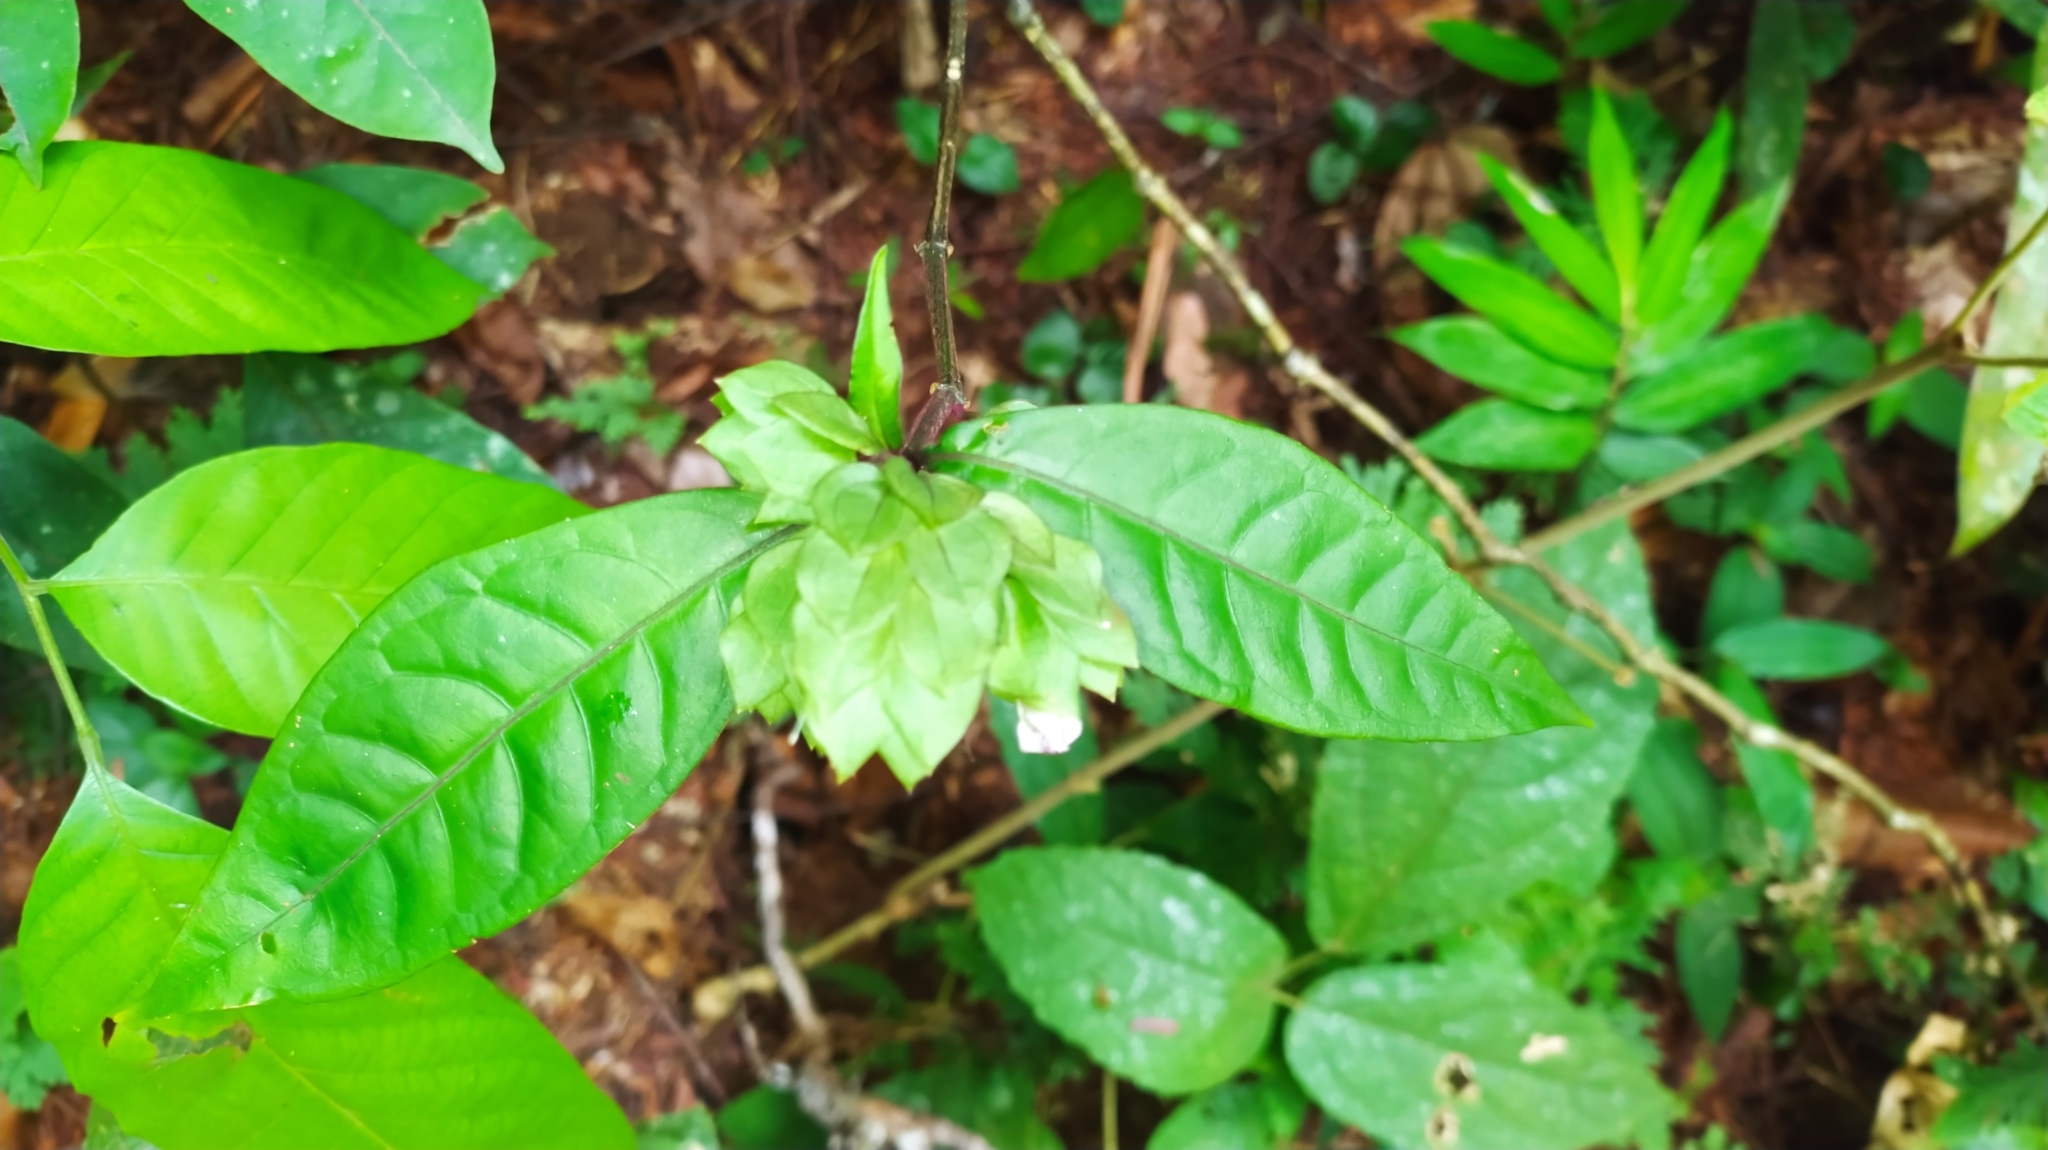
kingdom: Plantae
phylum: Tracheophyta
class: Magnoliopsida
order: Lamiales
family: Acanthaceae
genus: Herpetacanthus
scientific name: Herpetacanthus rotundatus
